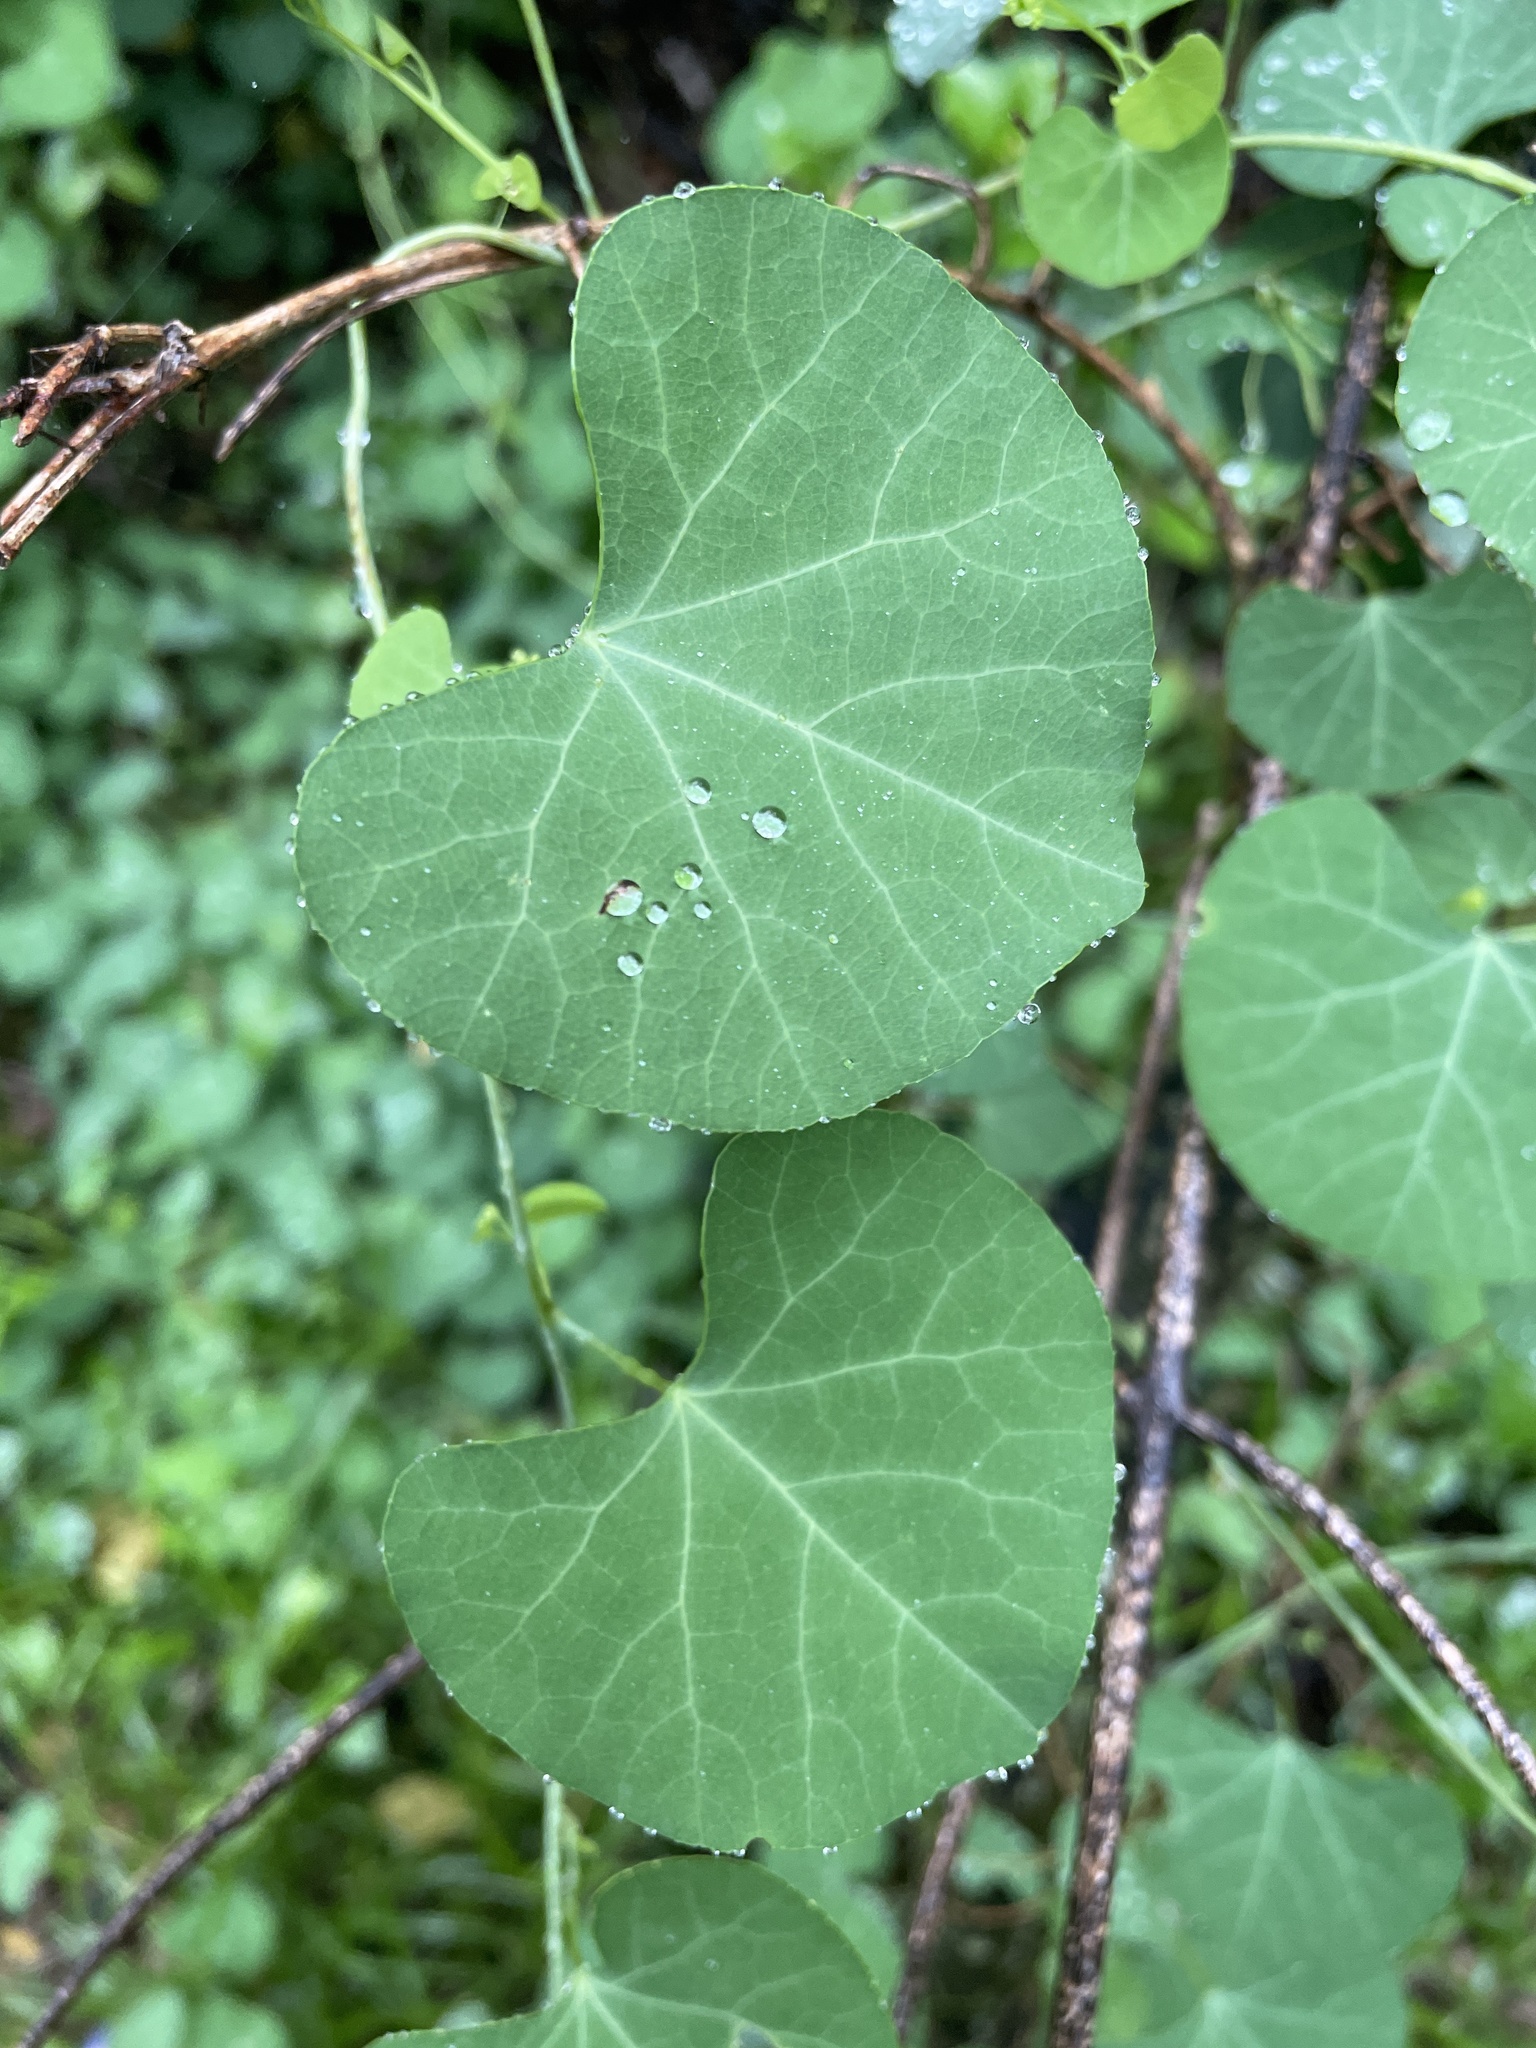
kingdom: Plantae
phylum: Tracheophyta
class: Magnoliopsida
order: Ranunculales
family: Menispermaceae
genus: Cissampelos
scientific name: Cissampelos torulosa
